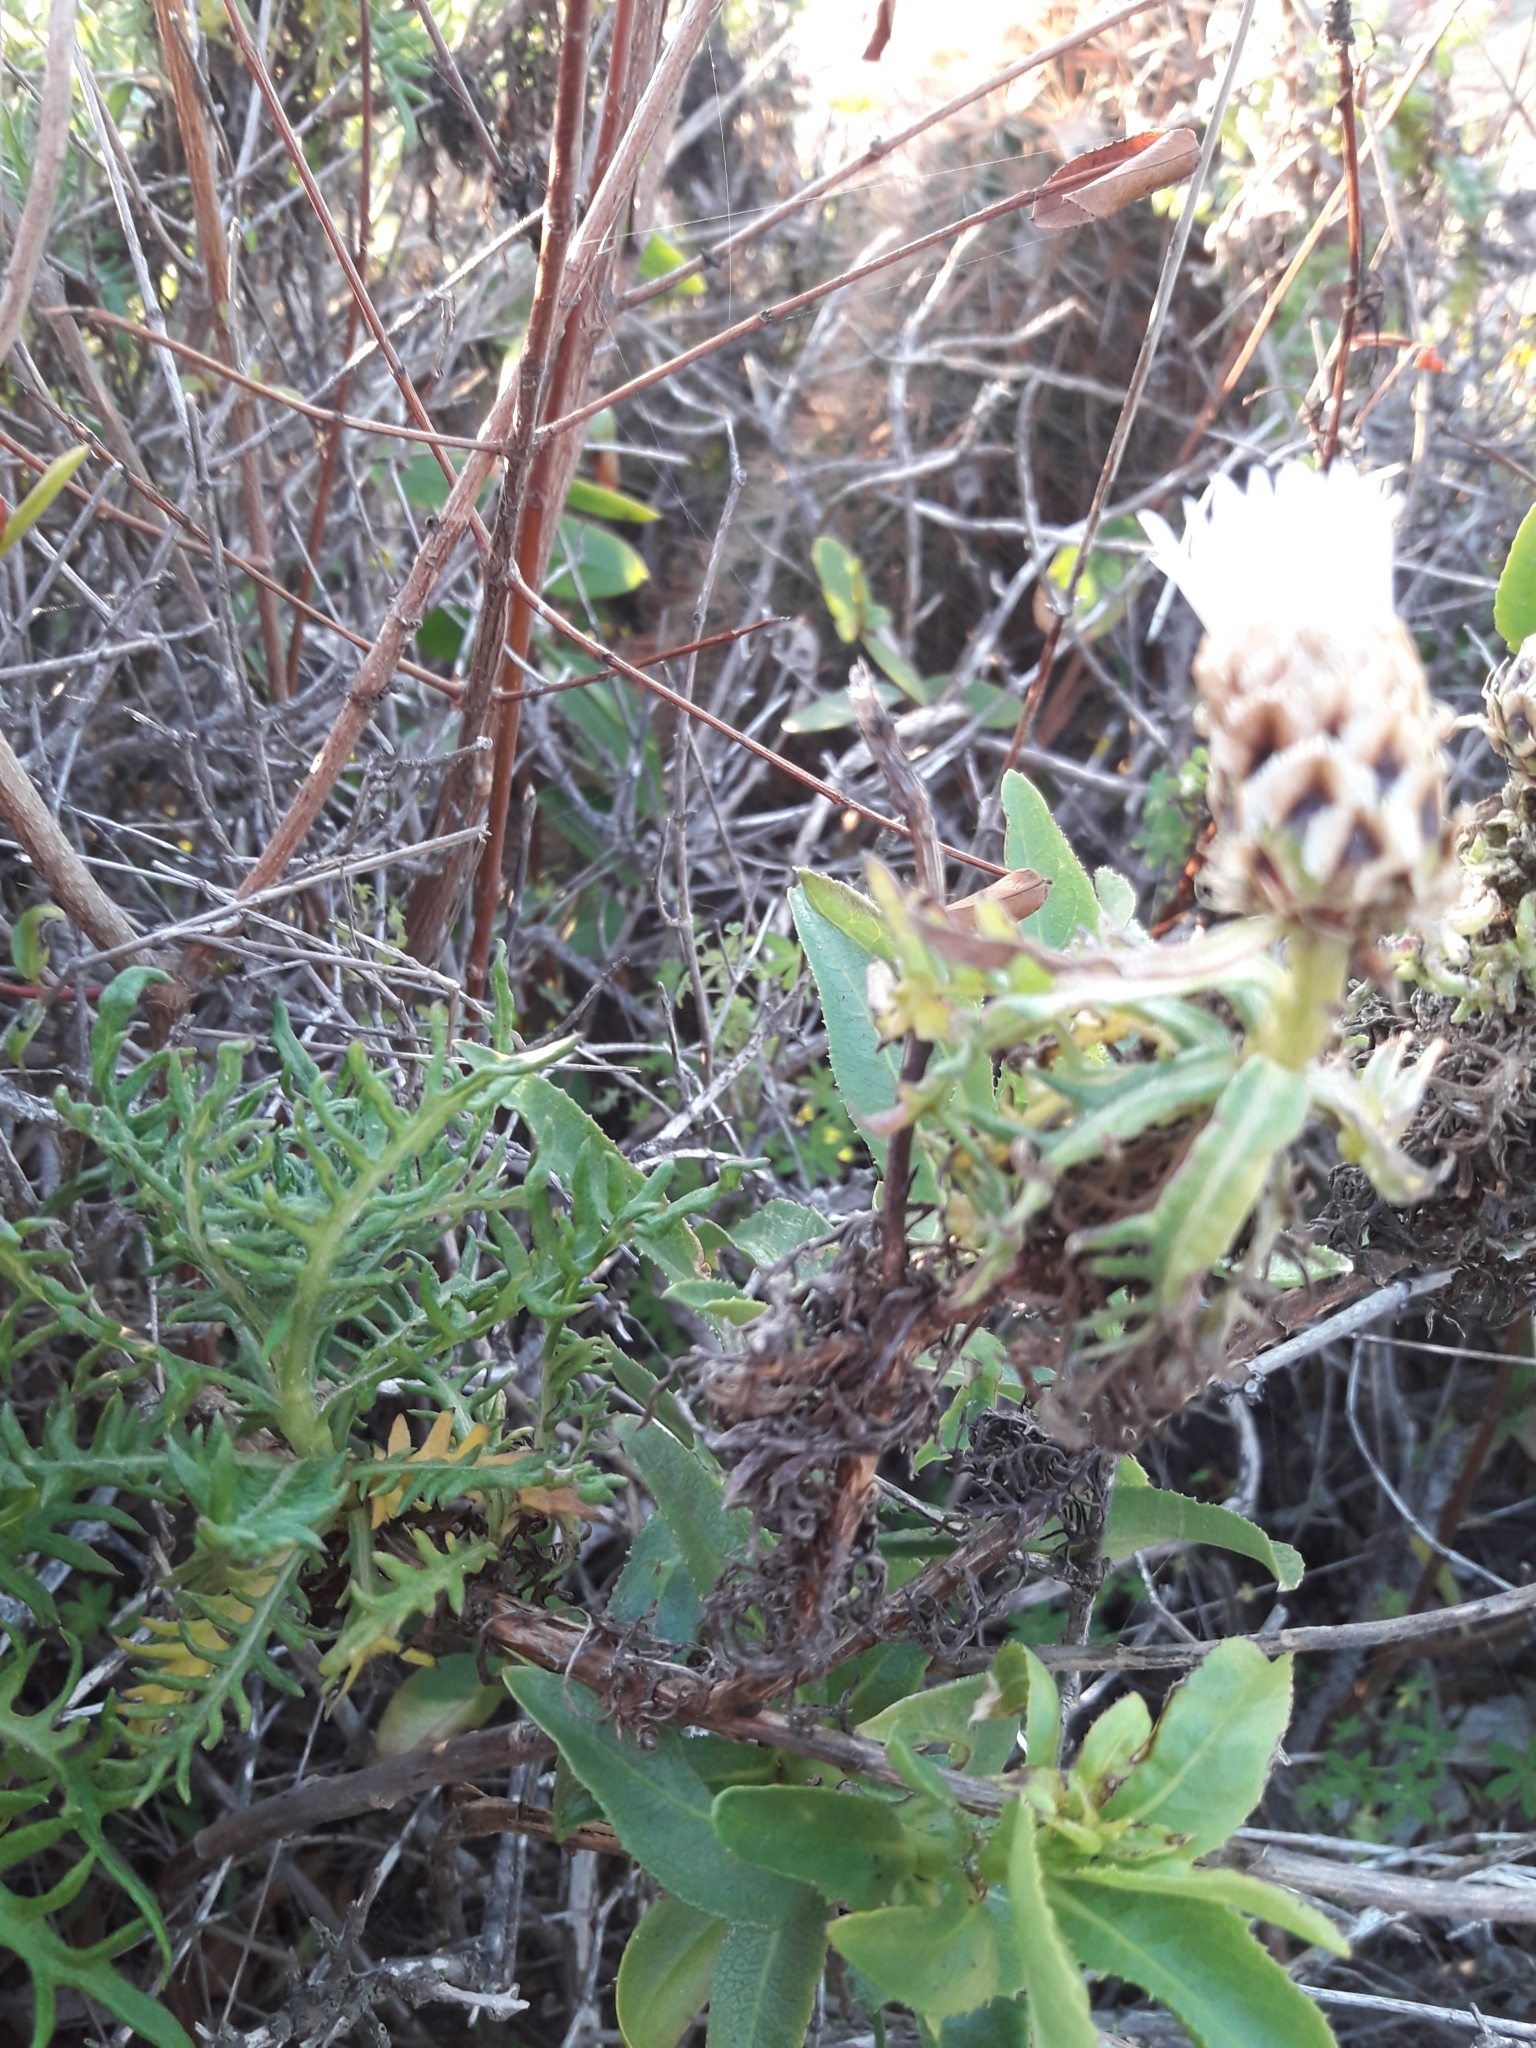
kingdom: Plantae
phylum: Tracheophyta
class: Magnoliopsida
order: Asterales
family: Asteraceae
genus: Plectocephalus
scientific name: Plectocephalus chilensis
